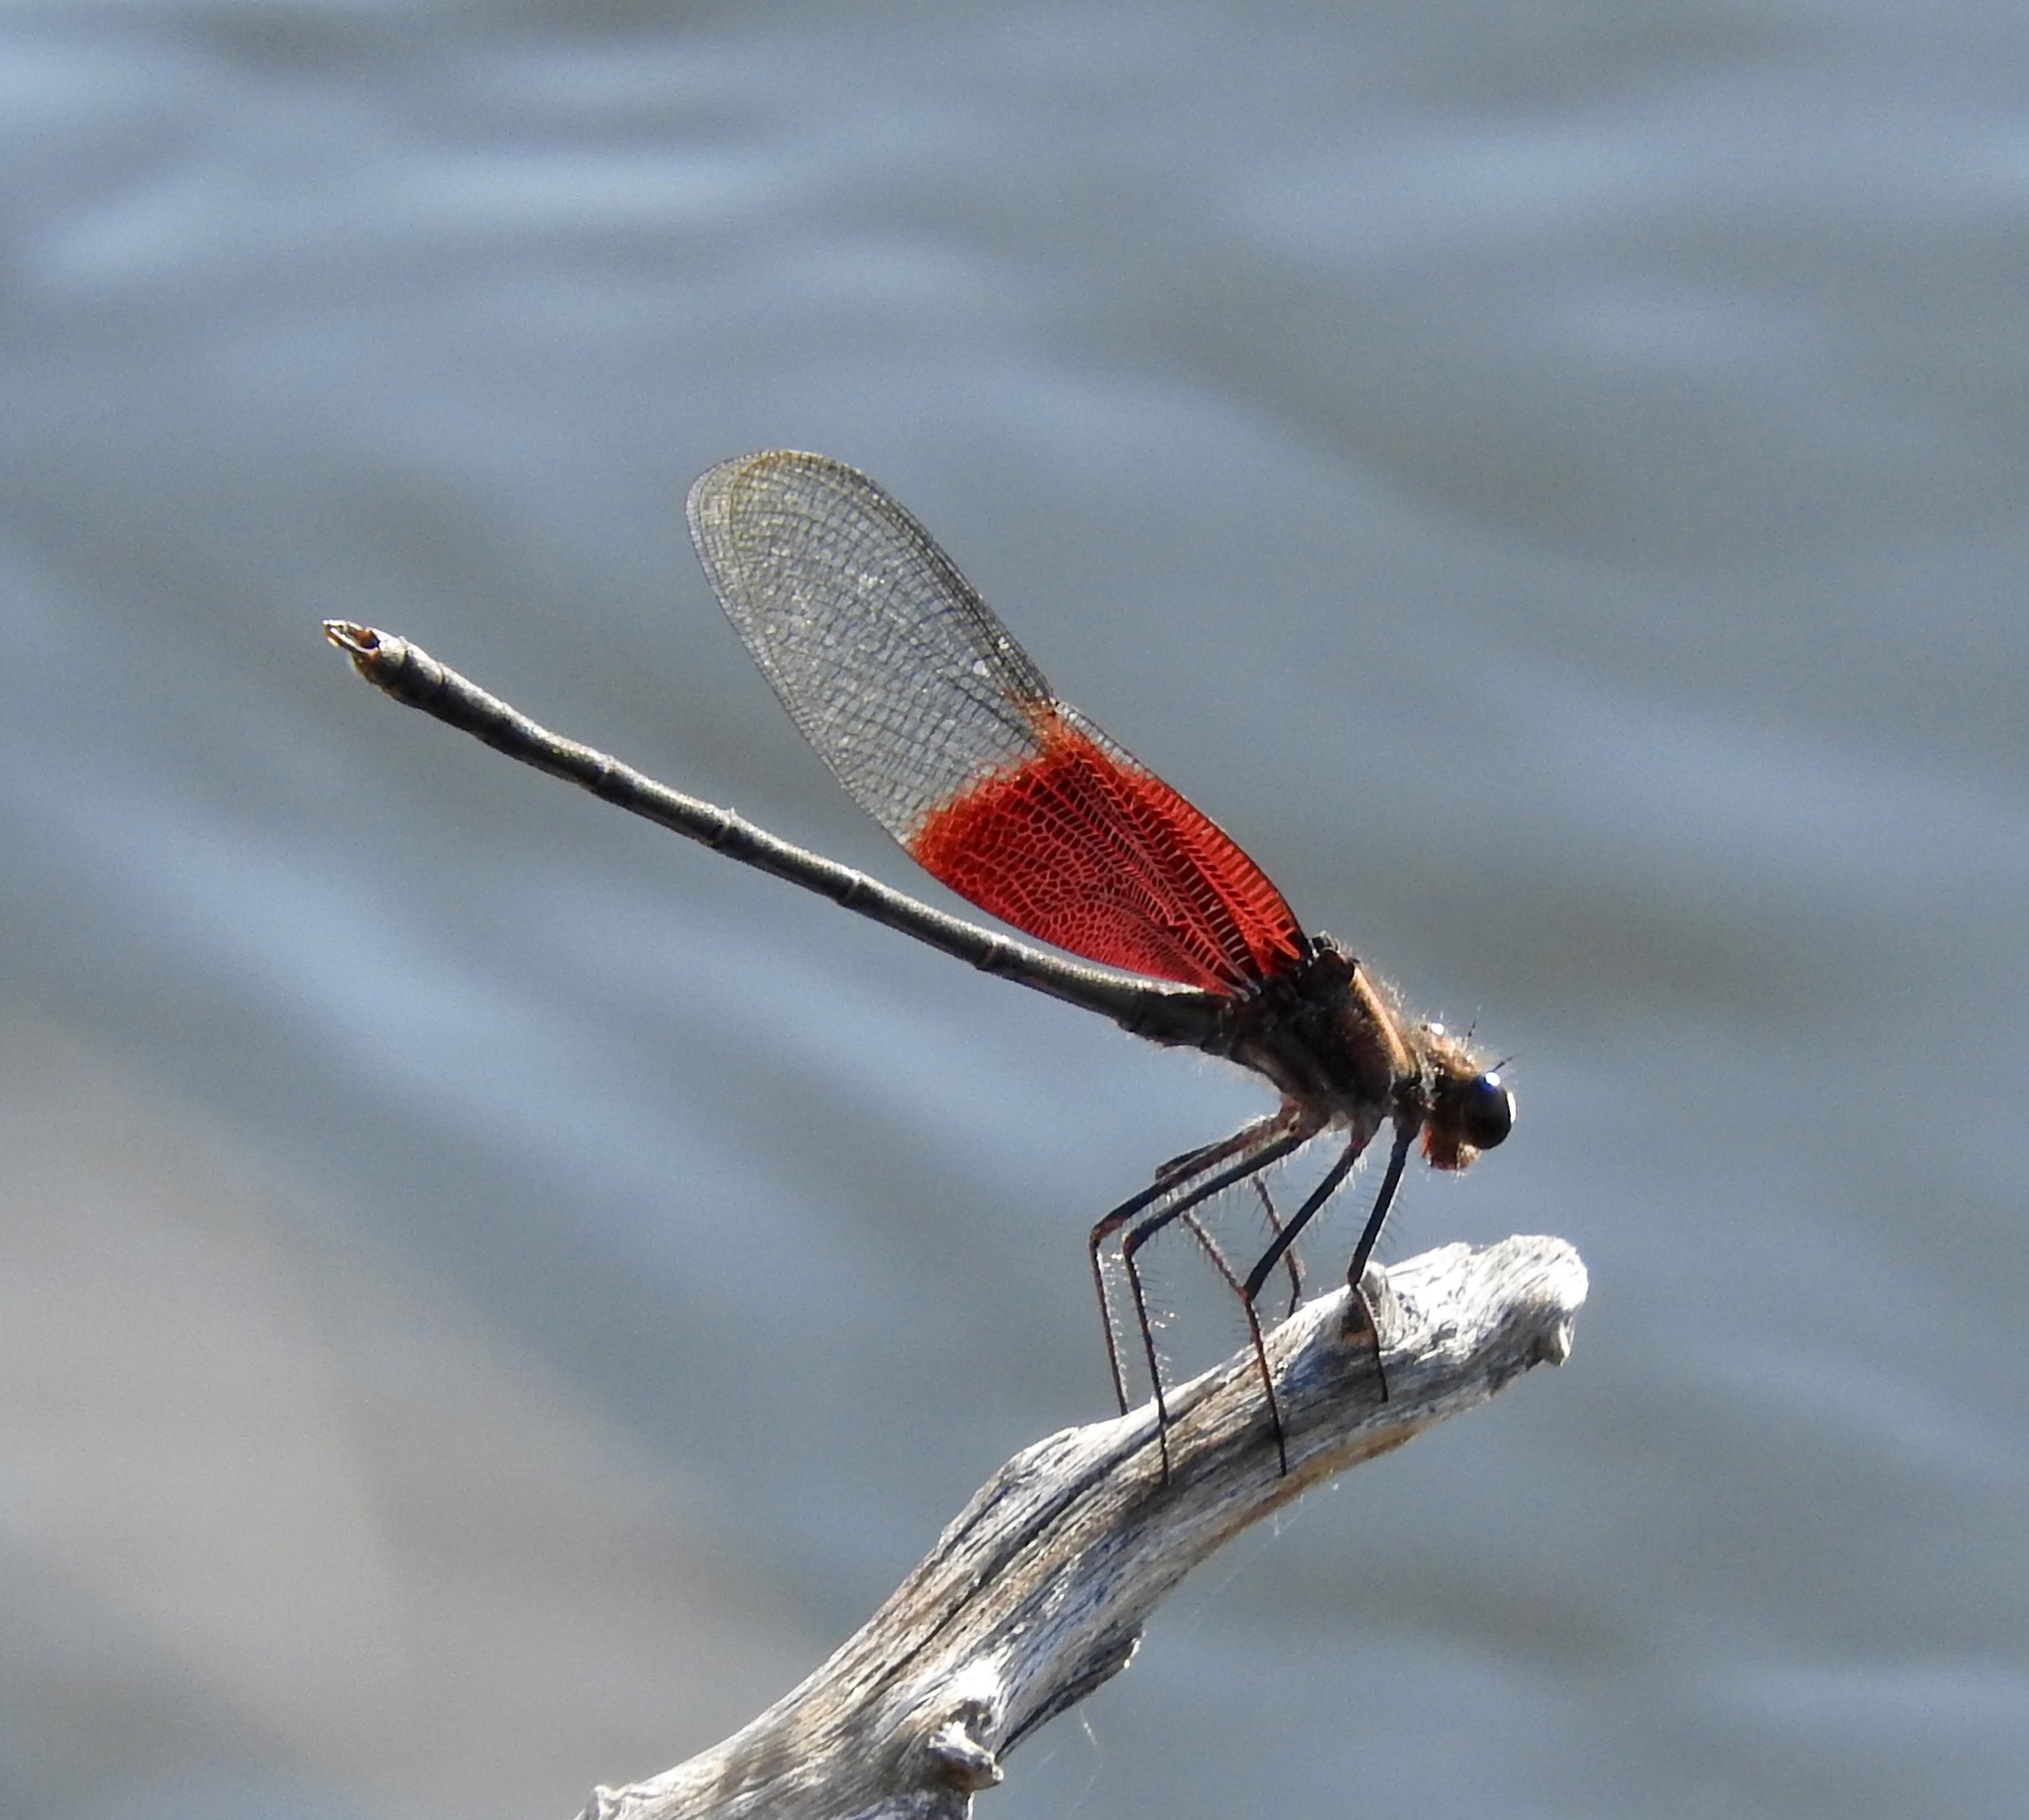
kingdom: Animalia
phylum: Arthropoda
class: Insecta
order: Odonata
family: Calopterygidae
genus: Hetaerina
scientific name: Hetaerina americana
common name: American rubyspot
